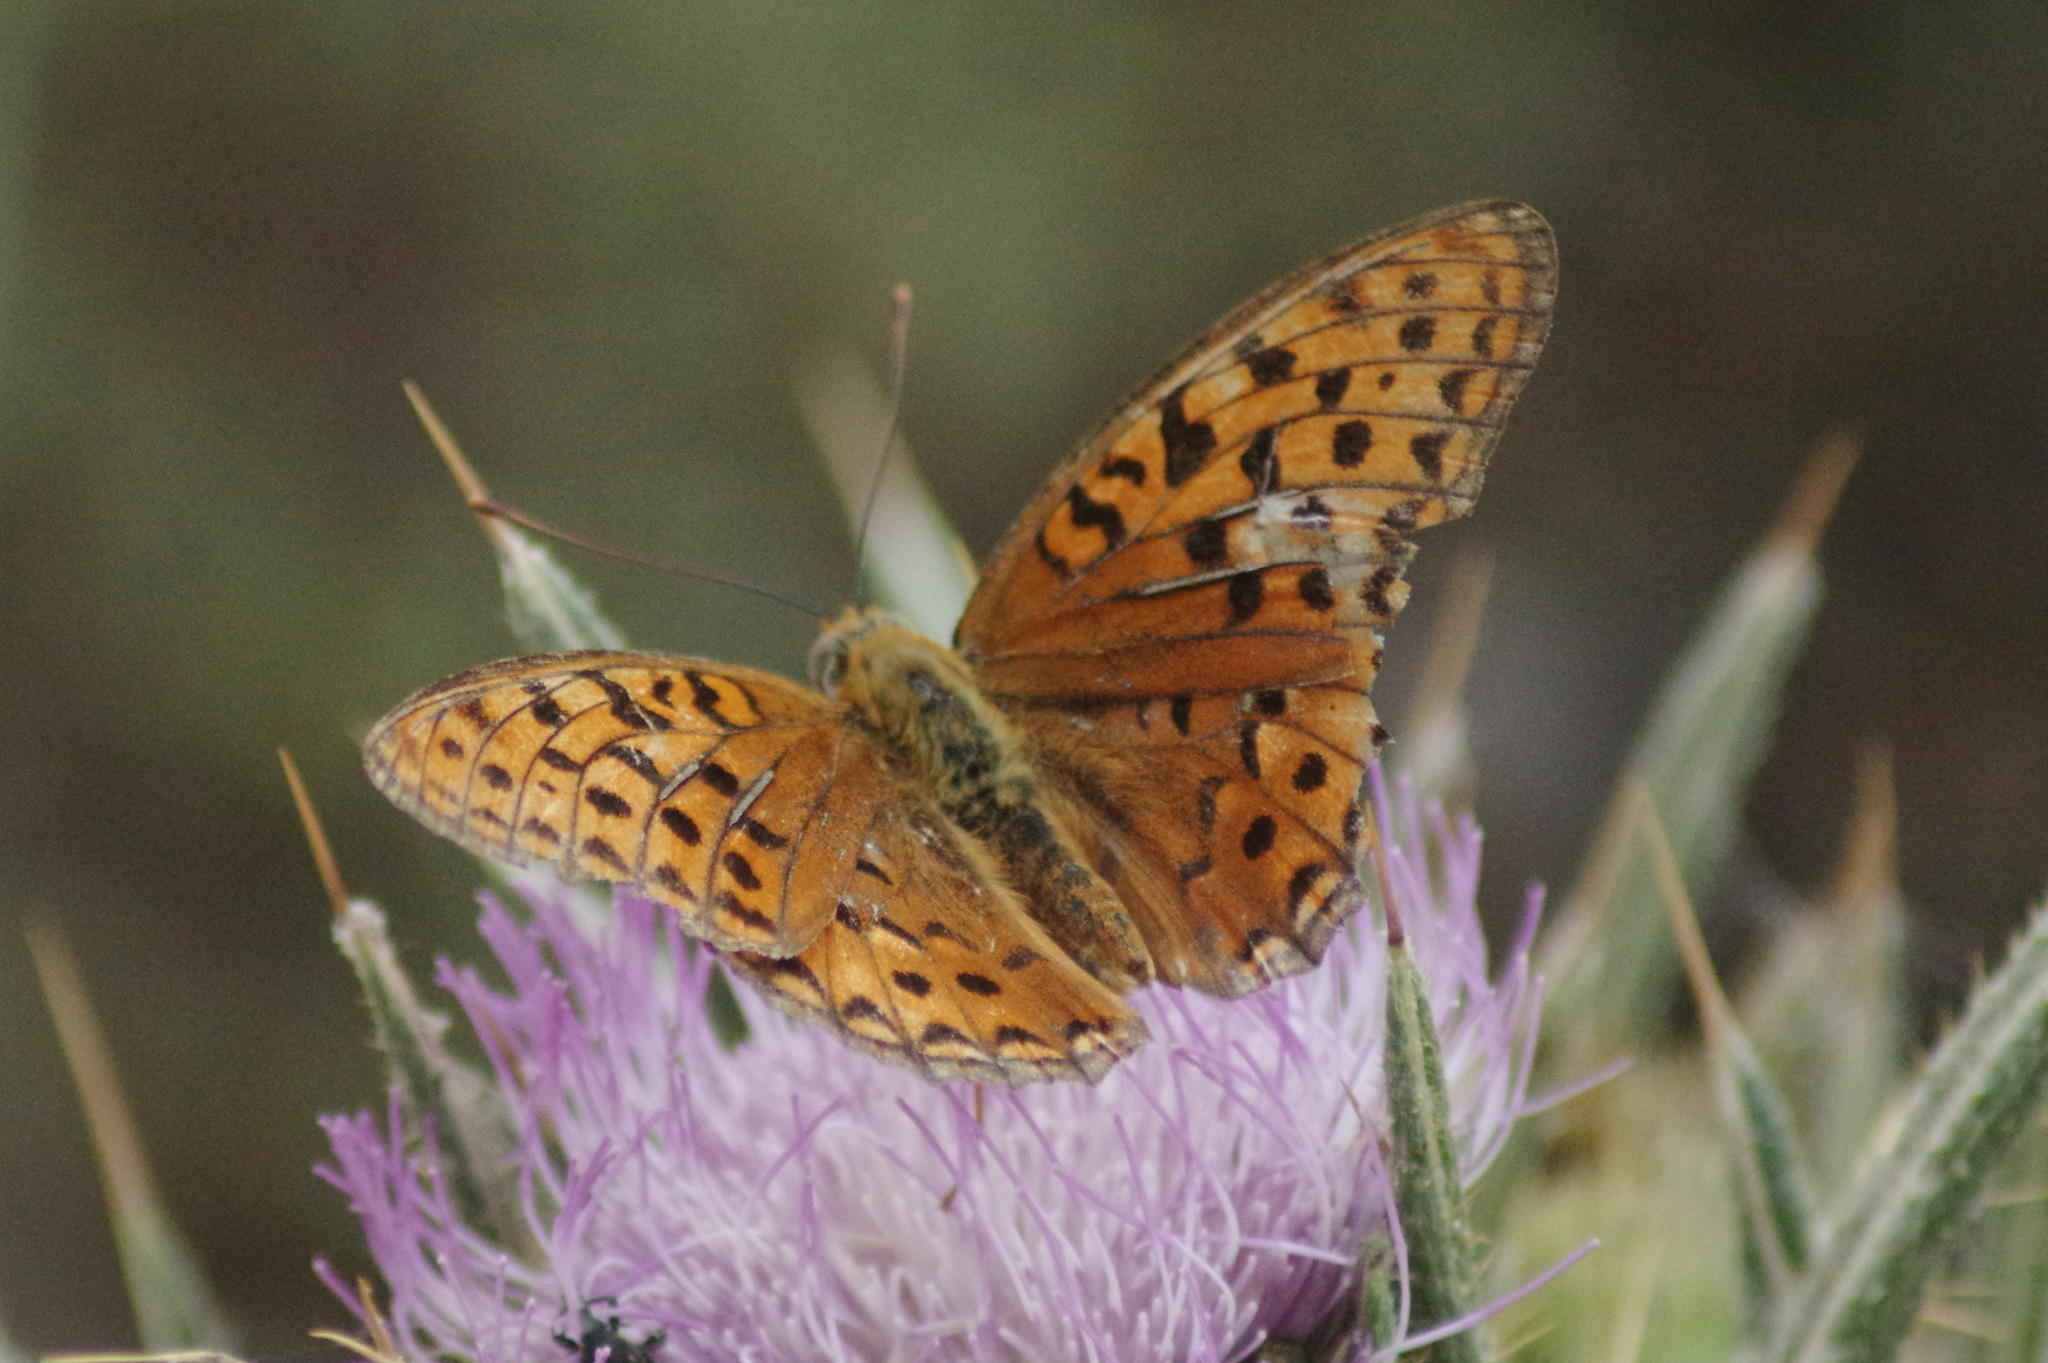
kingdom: Animalia
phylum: Arthropoda
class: Insecta
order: Lepidoptera
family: Nymphalidae
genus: Fabriciana
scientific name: Fabriciana adippe
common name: High brown fritillary
